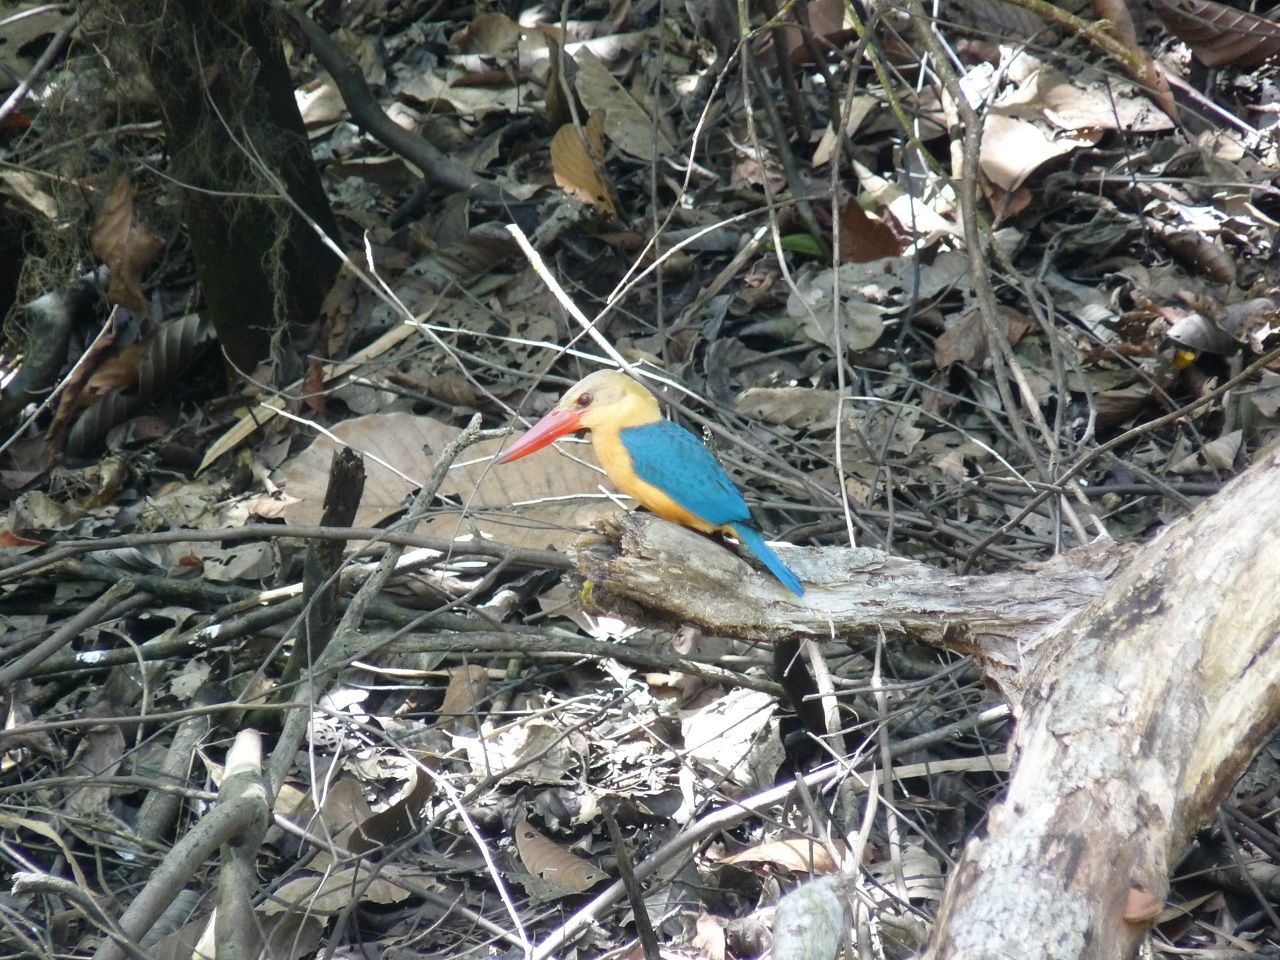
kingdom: Animalia
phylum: Chordata
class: Aves
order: Coraciiformes
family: Alcedinidae
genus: Pelargopsis
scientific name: Pelargopsis capensis
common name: Stork-billed kingfisher
